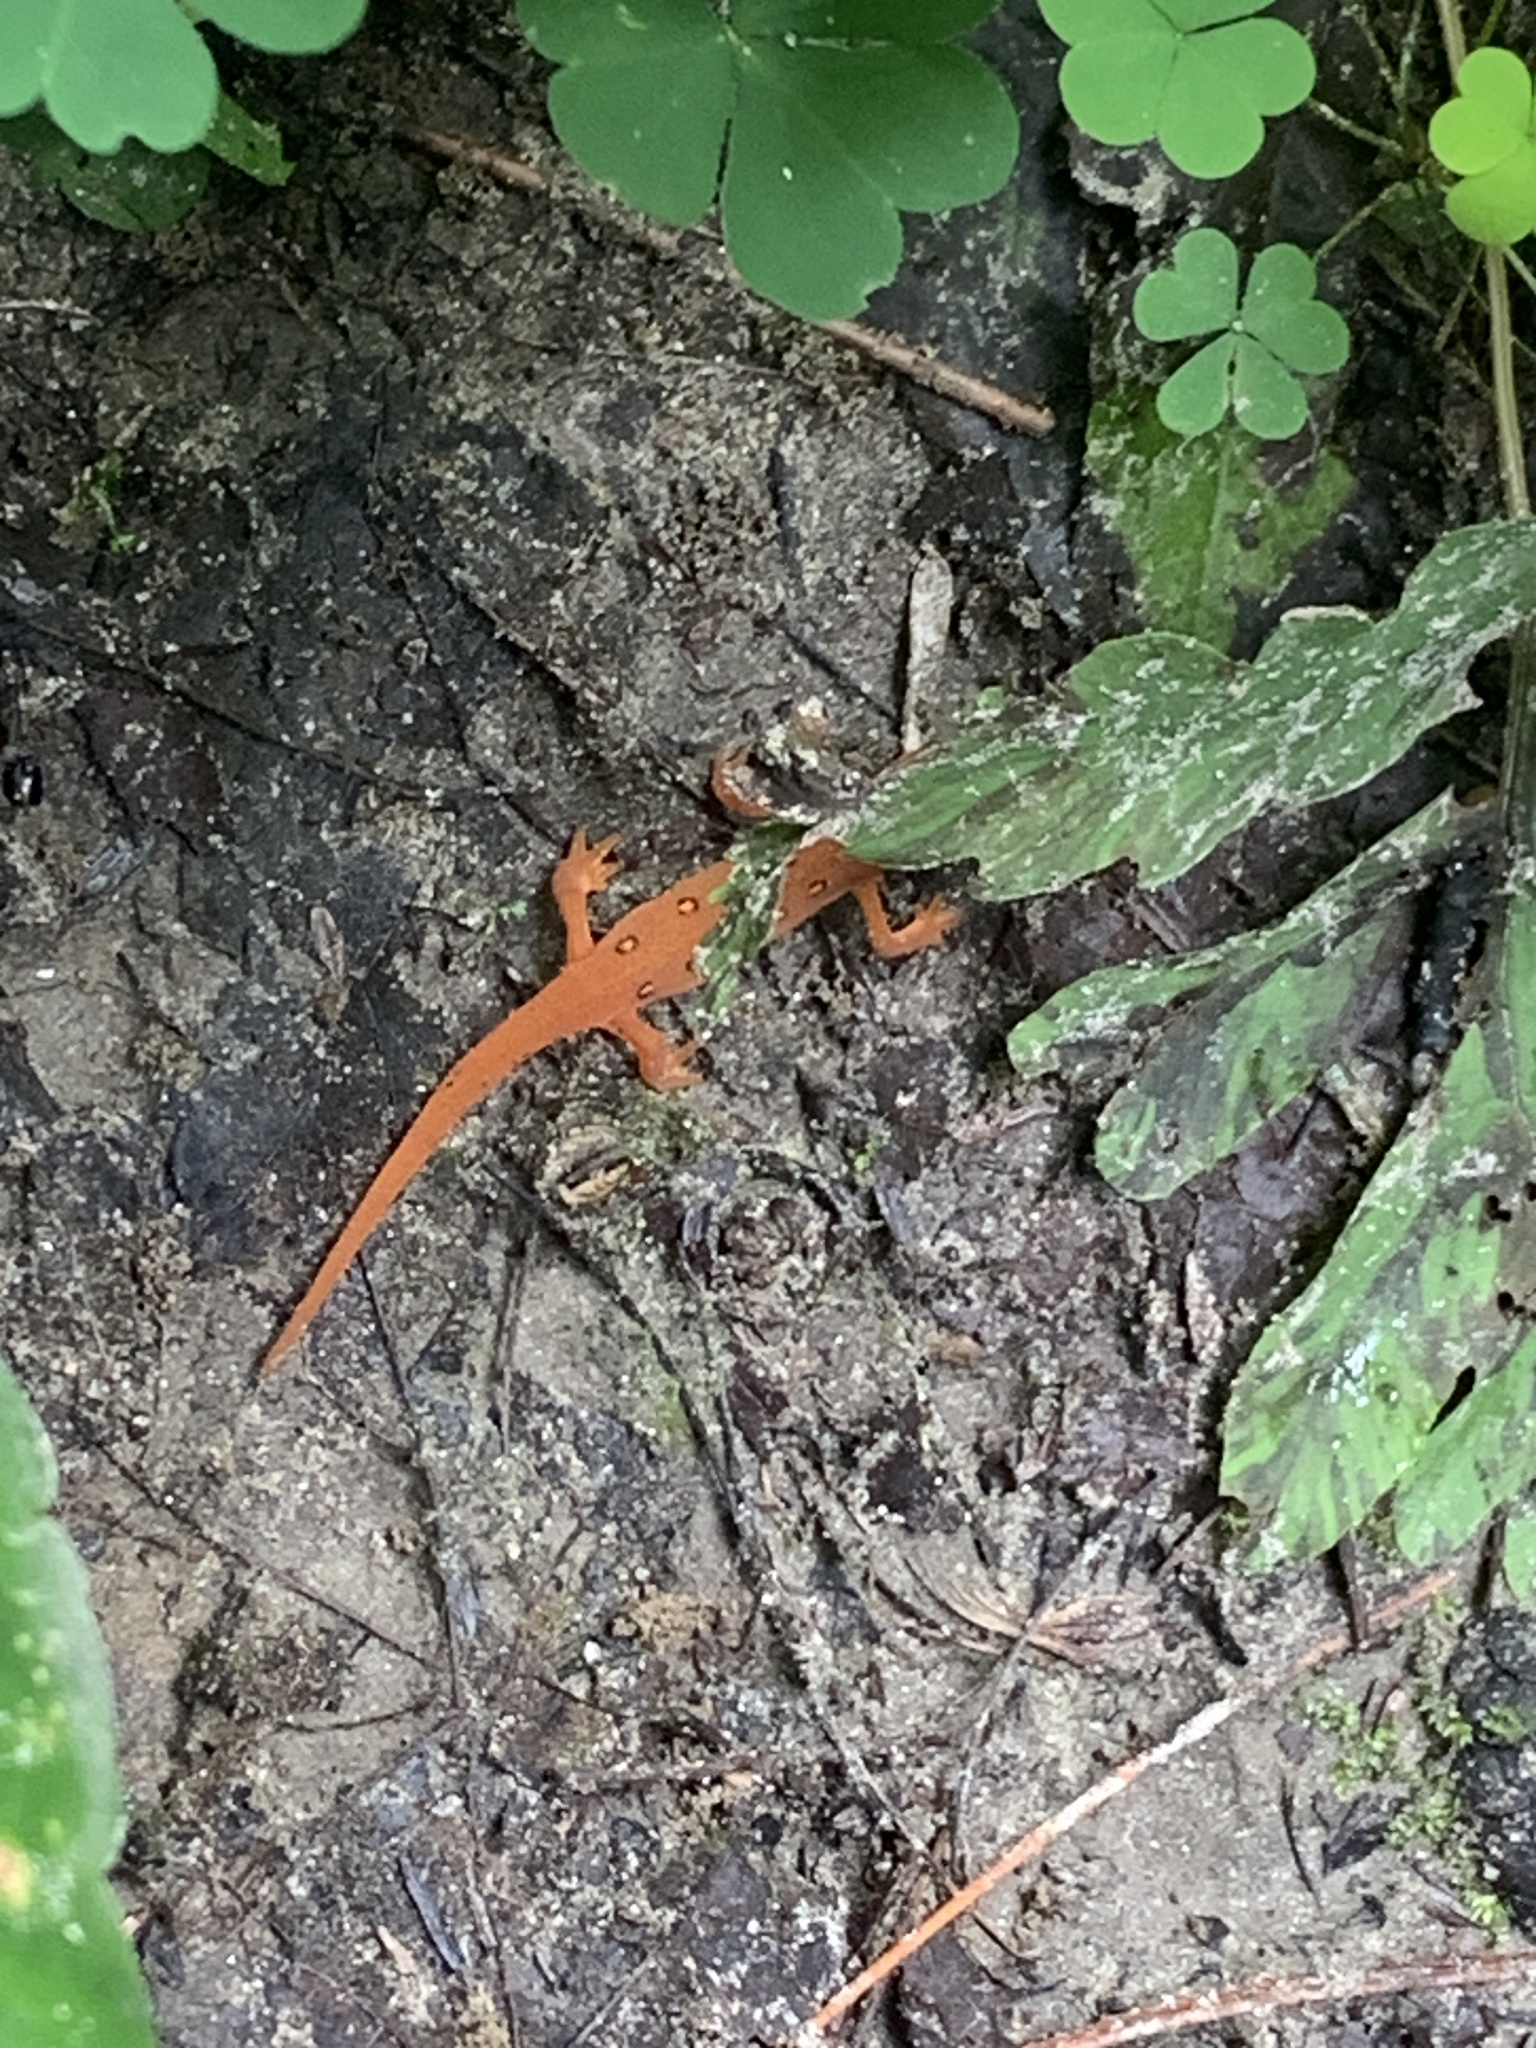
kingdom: Animalia
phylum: Chordata
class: Amphibia
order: Caudata
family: Salamandridae
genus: Notophthalmus
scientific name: Notophthalmus viridescens
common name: Eastern newt
